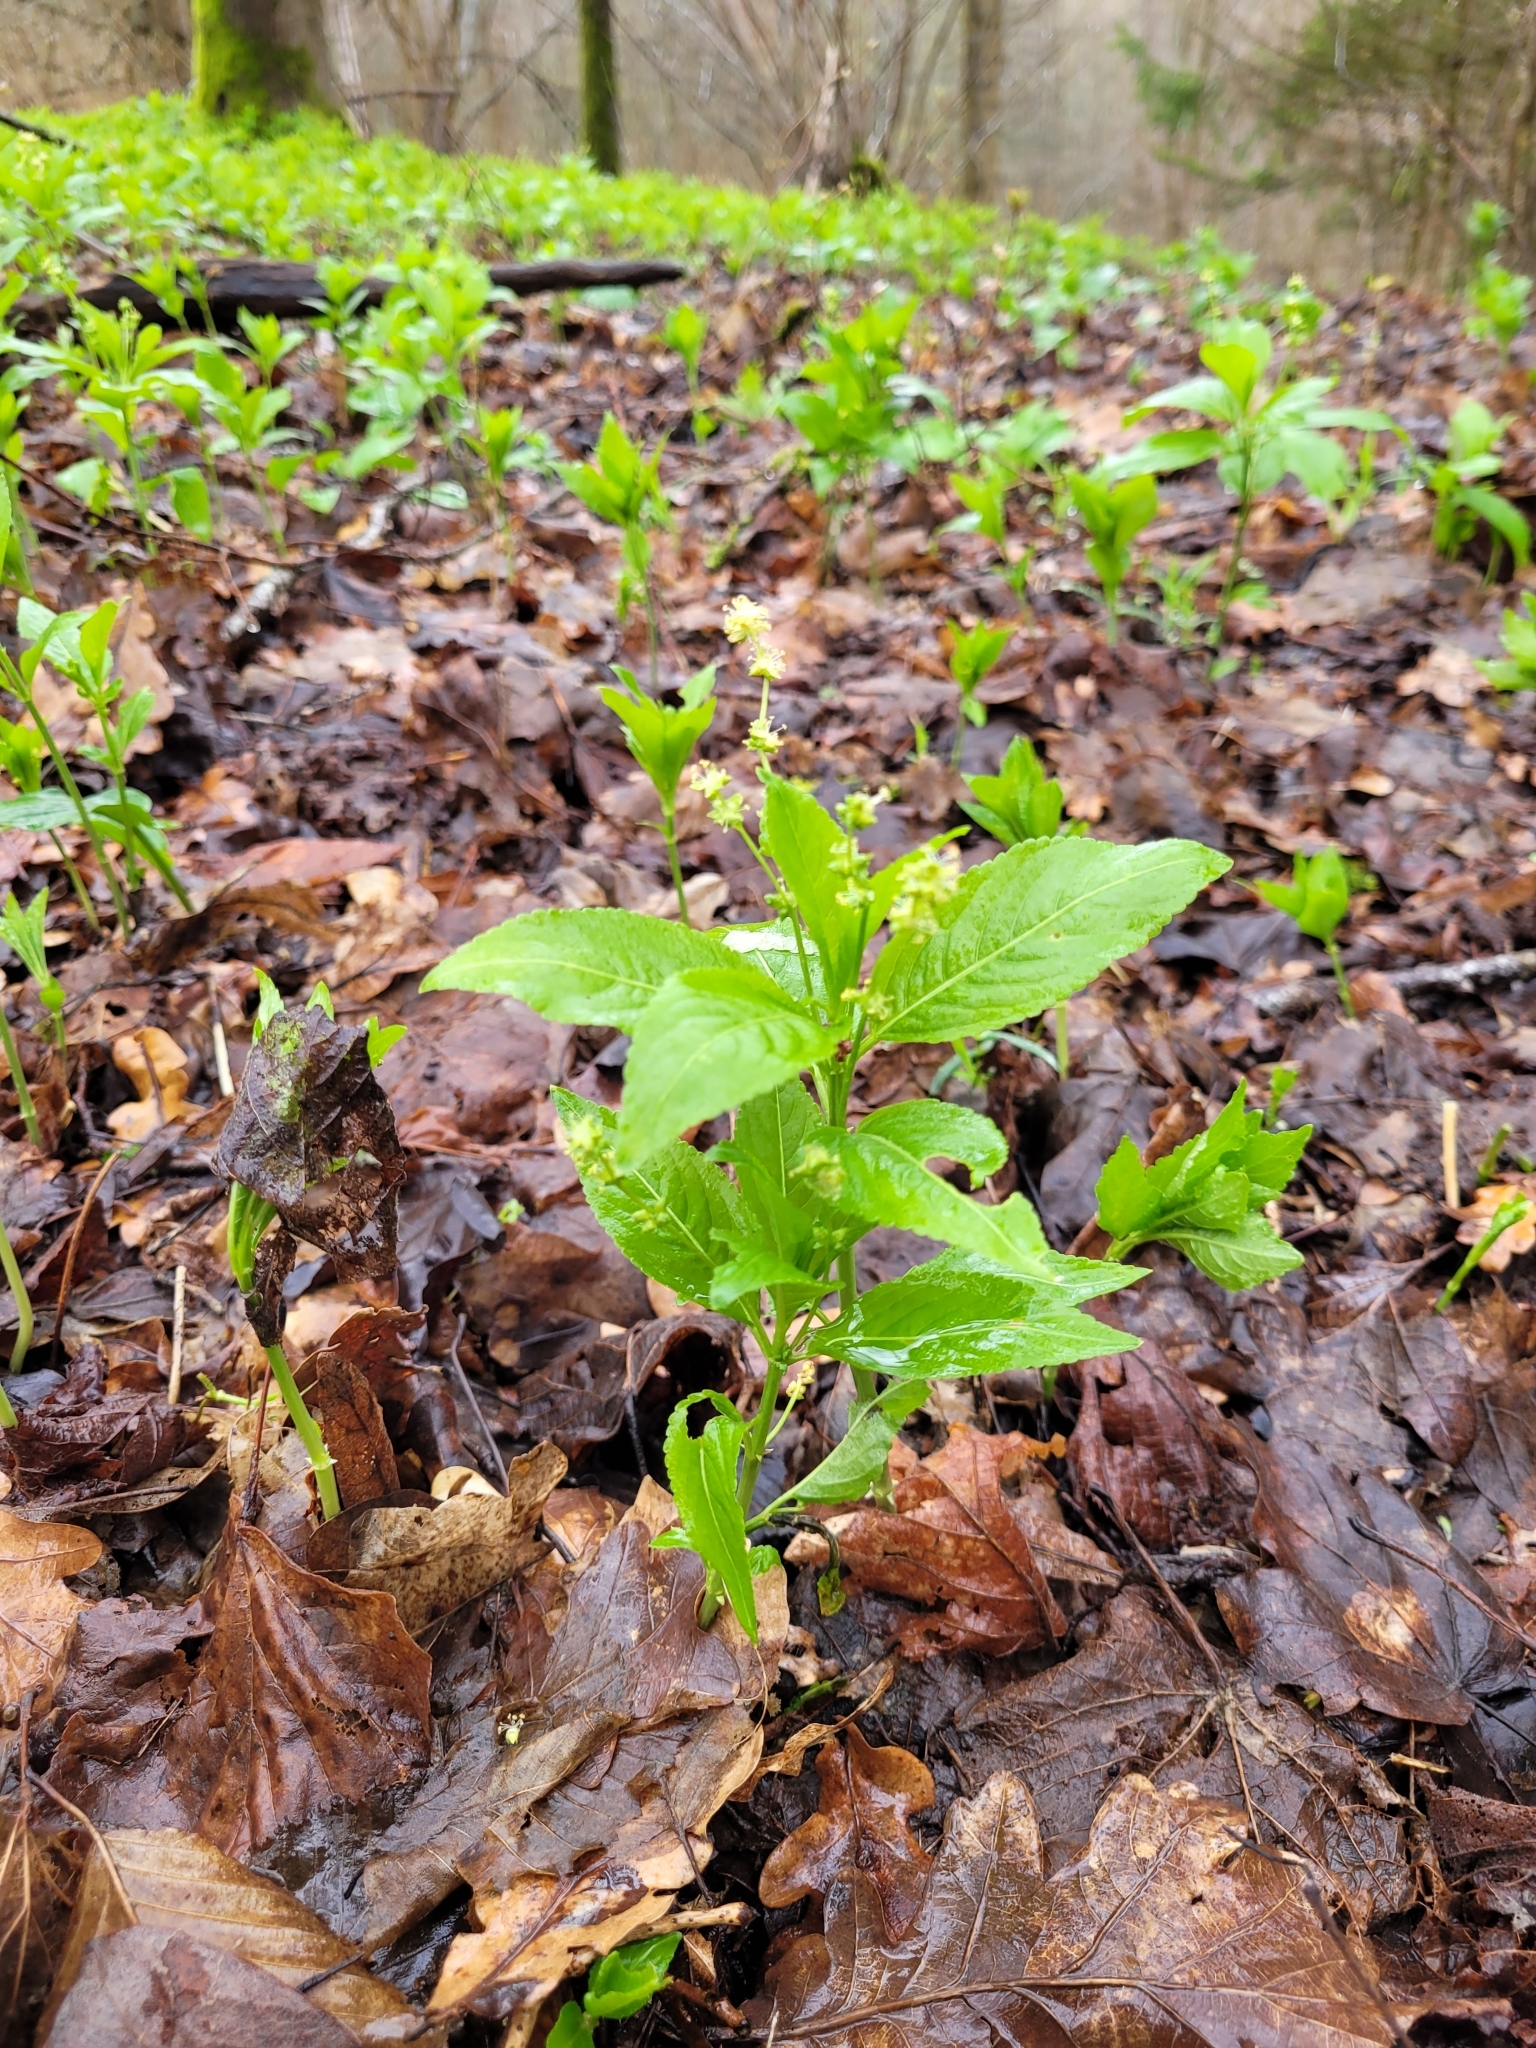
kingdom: Plantae
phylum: Tracheophyta
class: Magnoliopsida
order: Malpighiales
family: Euphorbiaceae
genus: Mercurialis
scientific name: Mercurialis perennis
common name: Dog mercury
